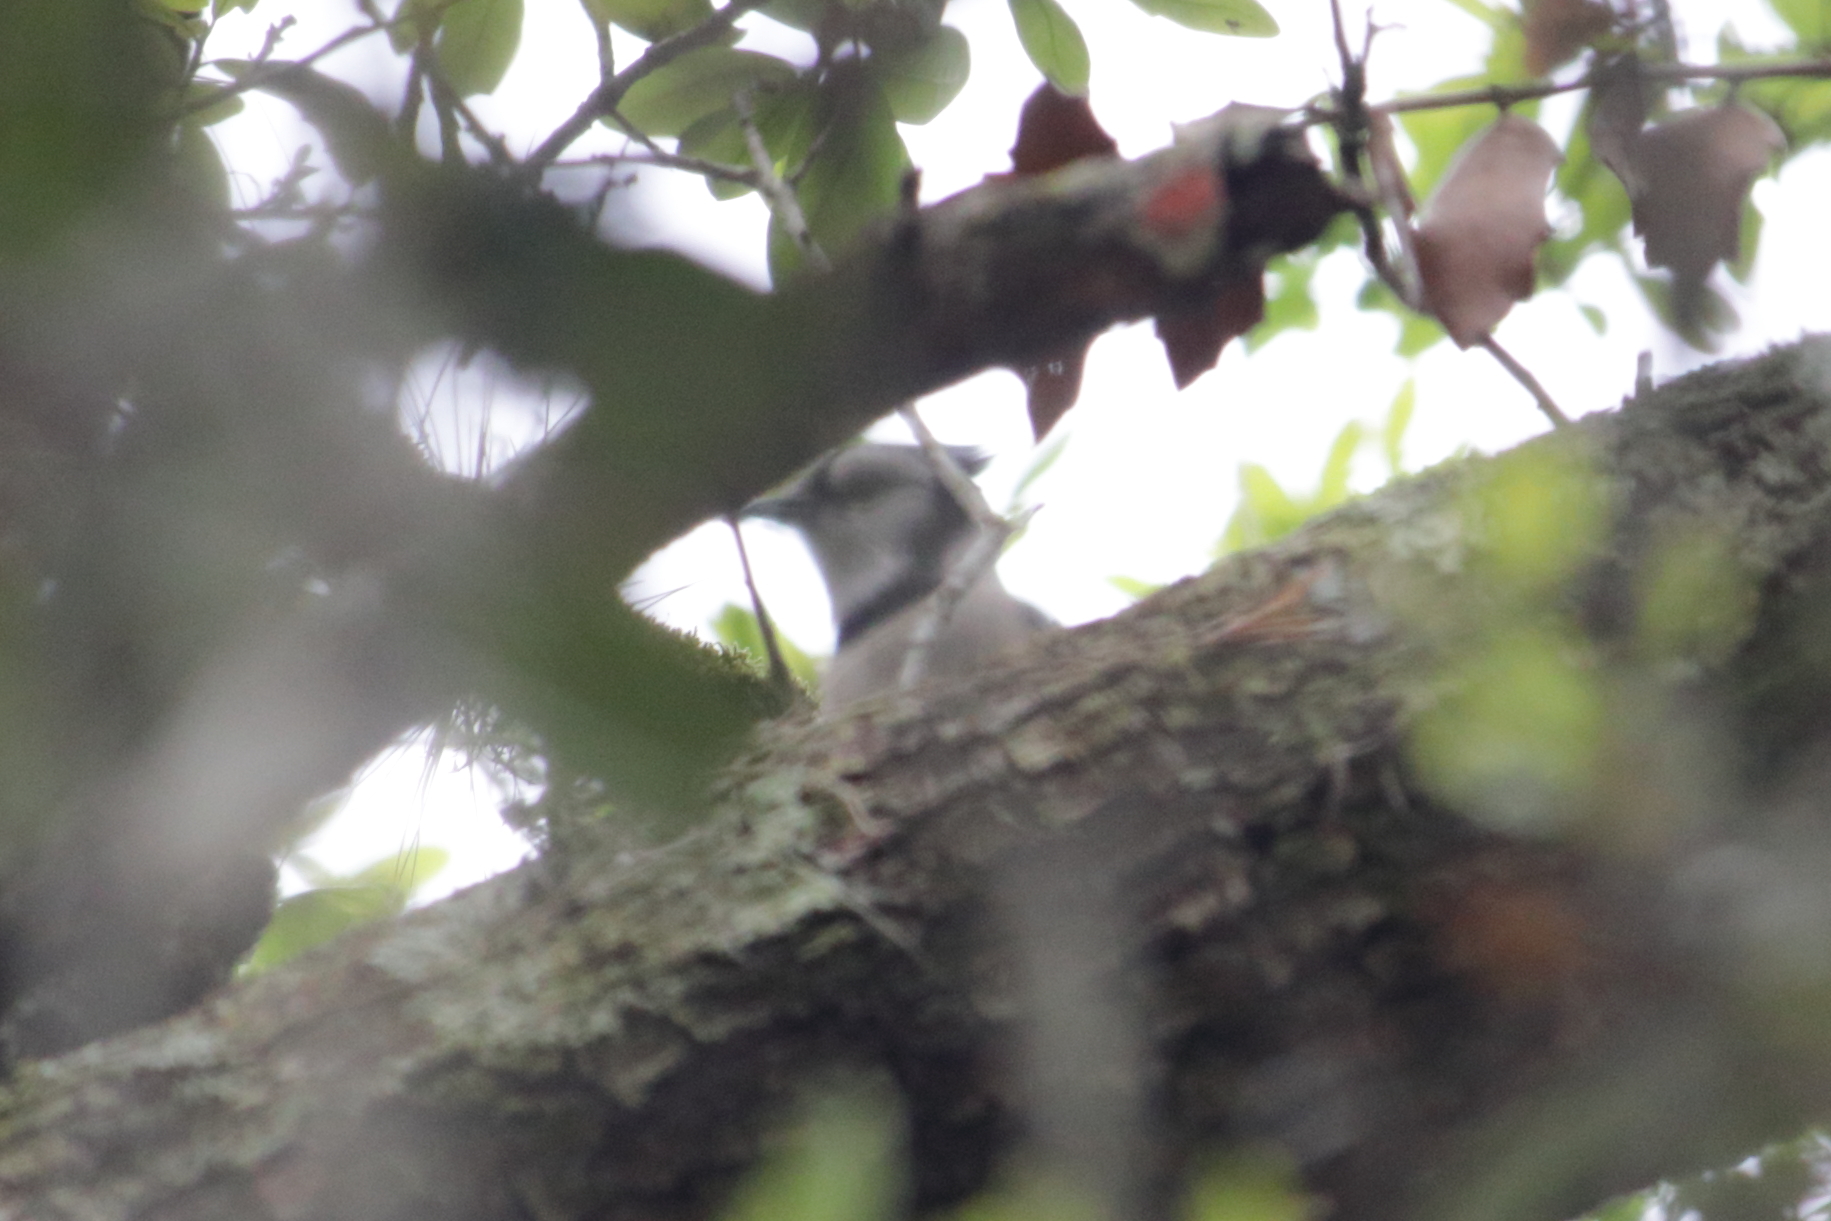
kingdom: Animalia
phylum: Chordata
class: Aves
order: Passeriformes
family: Corvidae
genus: Cyanocitta
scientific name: Cyanocitta cristata
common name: Blue jay
